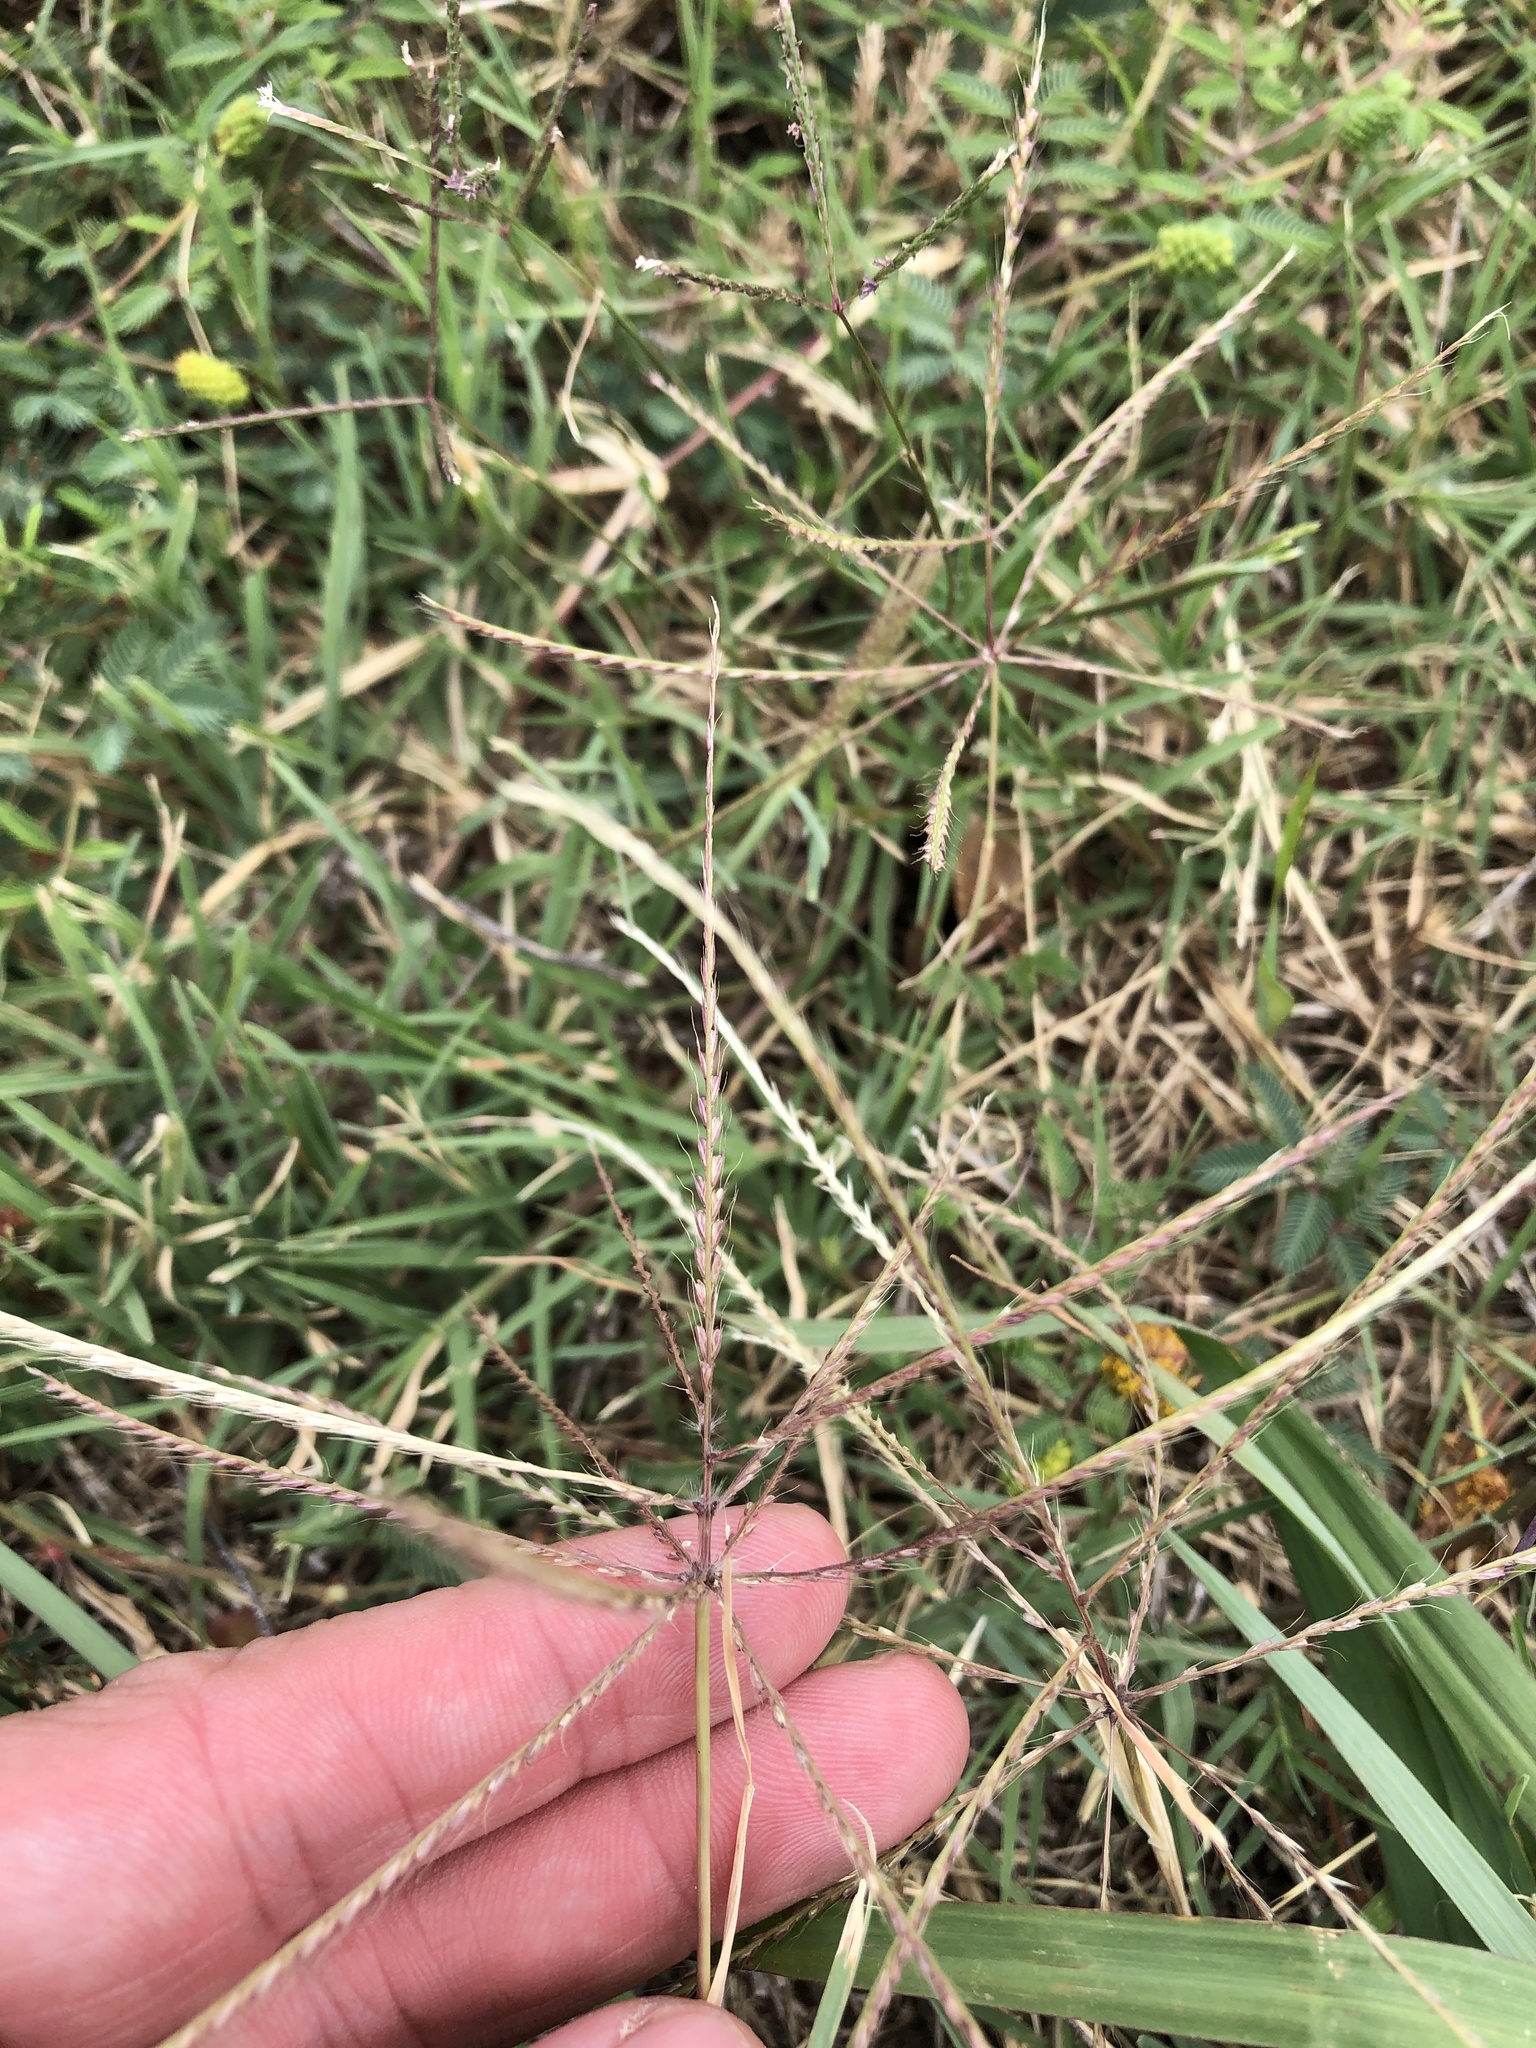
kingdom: Plantae
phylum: Tracheophyta
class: Liliopsida
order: Poales
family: Poaceae
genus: Chloris
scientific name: Chloris verticillata
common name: Tumble windmill grass
